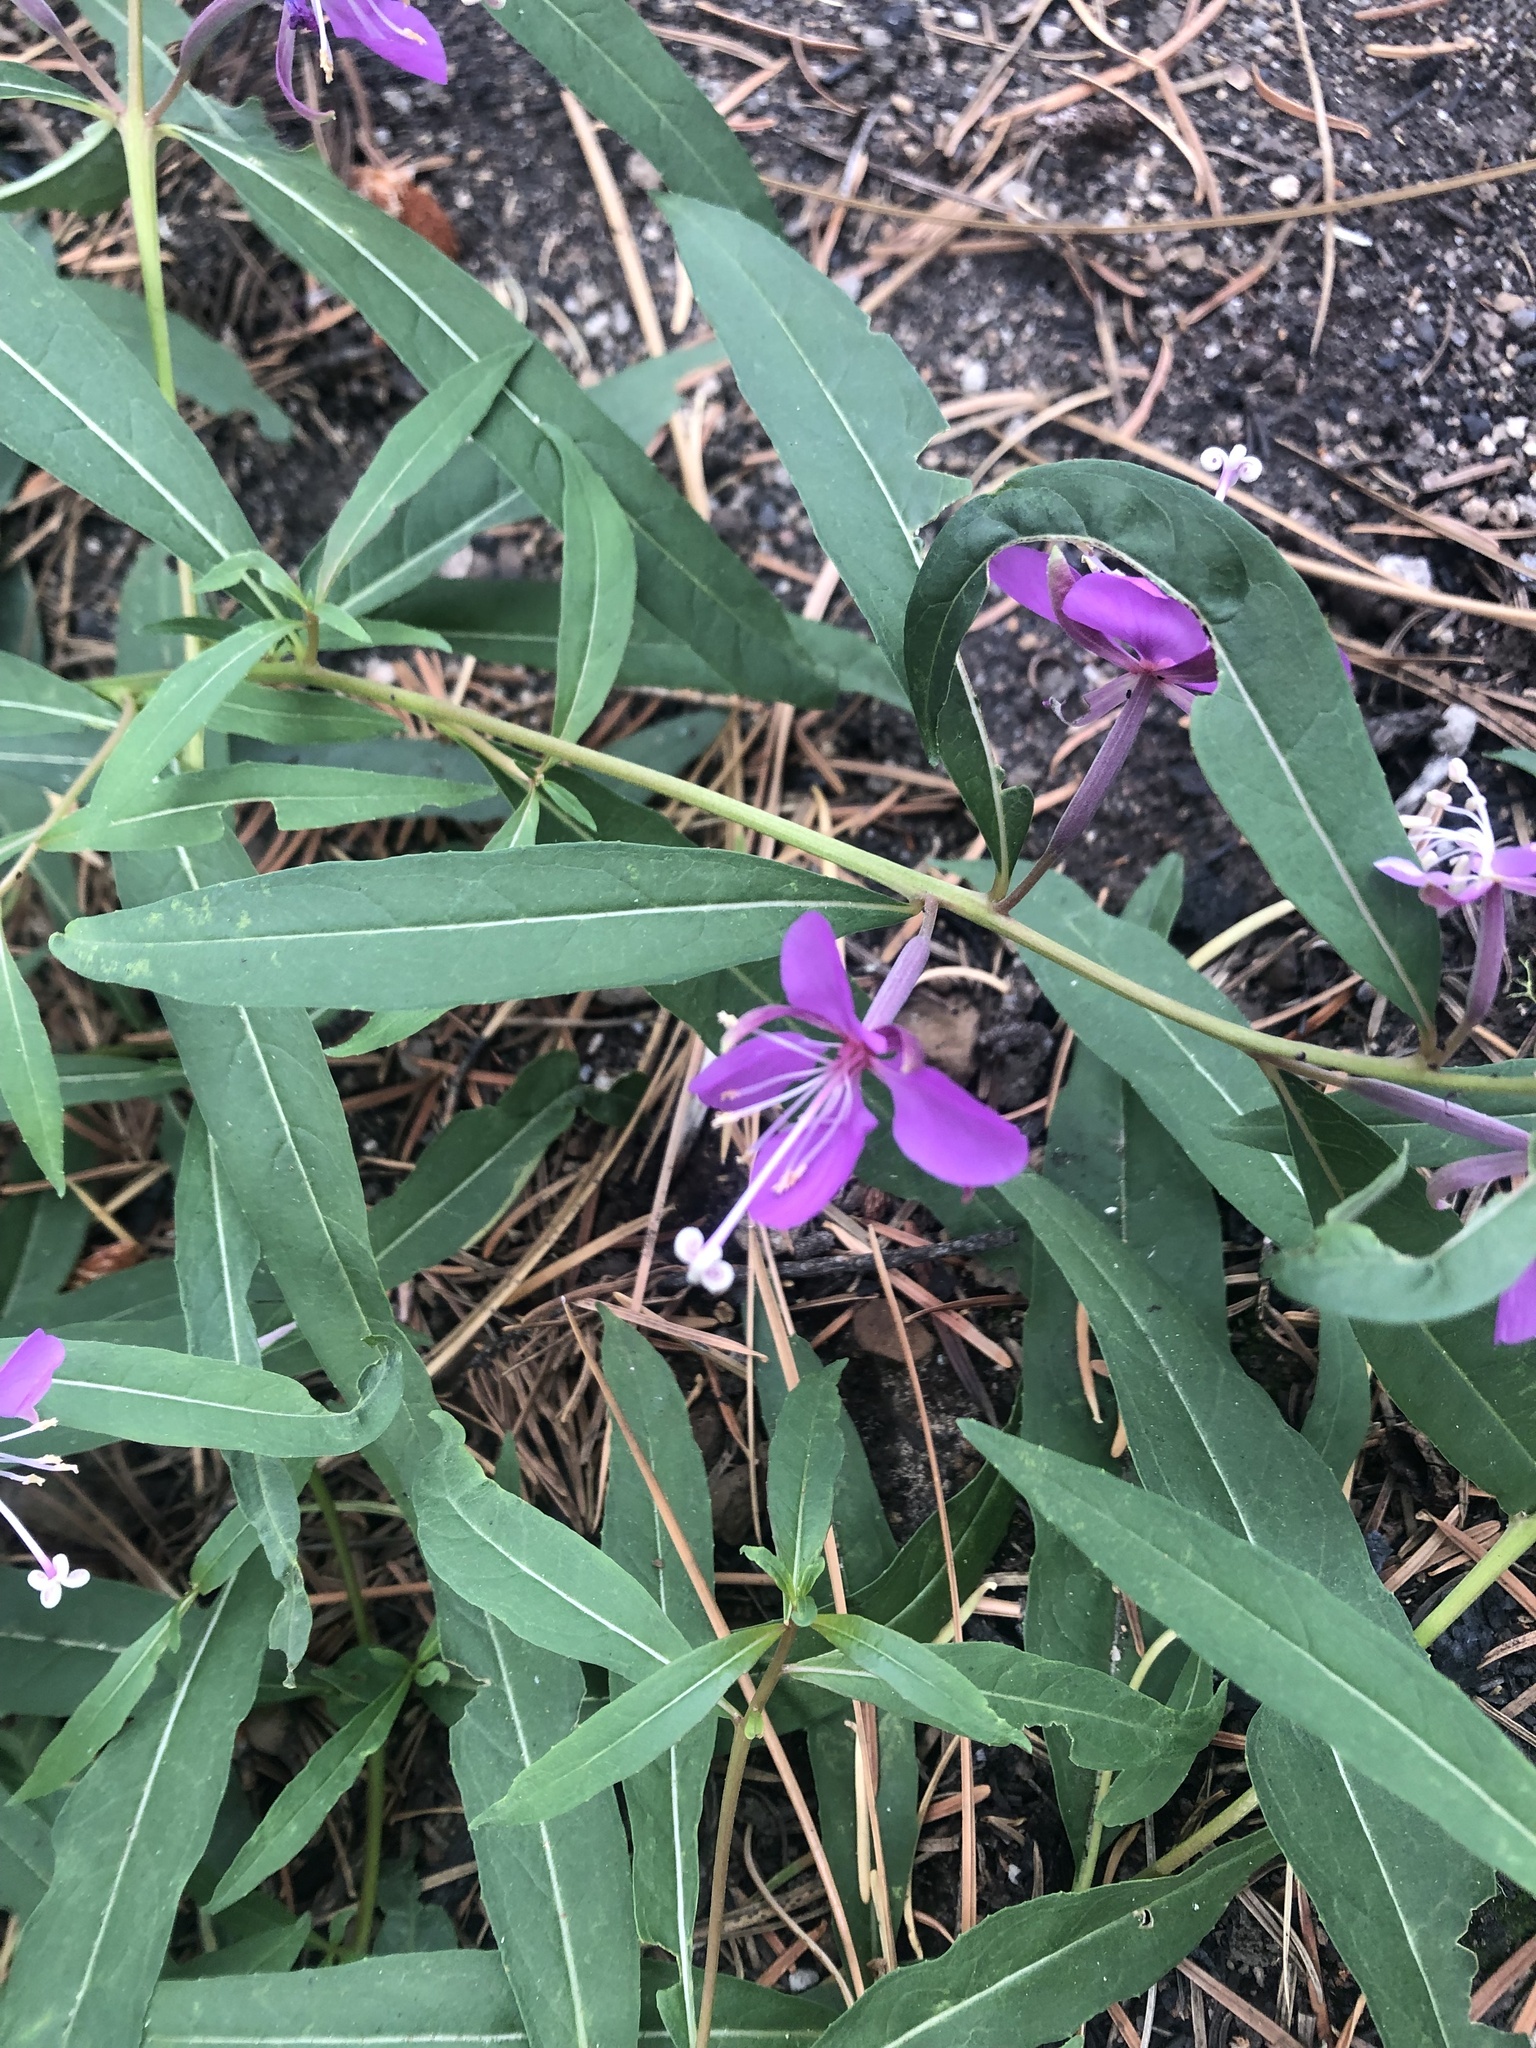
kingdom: Plantae
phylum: Tracheophyta
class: Magnoliopsida
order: Myrtales
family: Onagraceae
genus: Chamaenerion
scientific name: Chamaenerion angustifolium
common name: Fireweed
